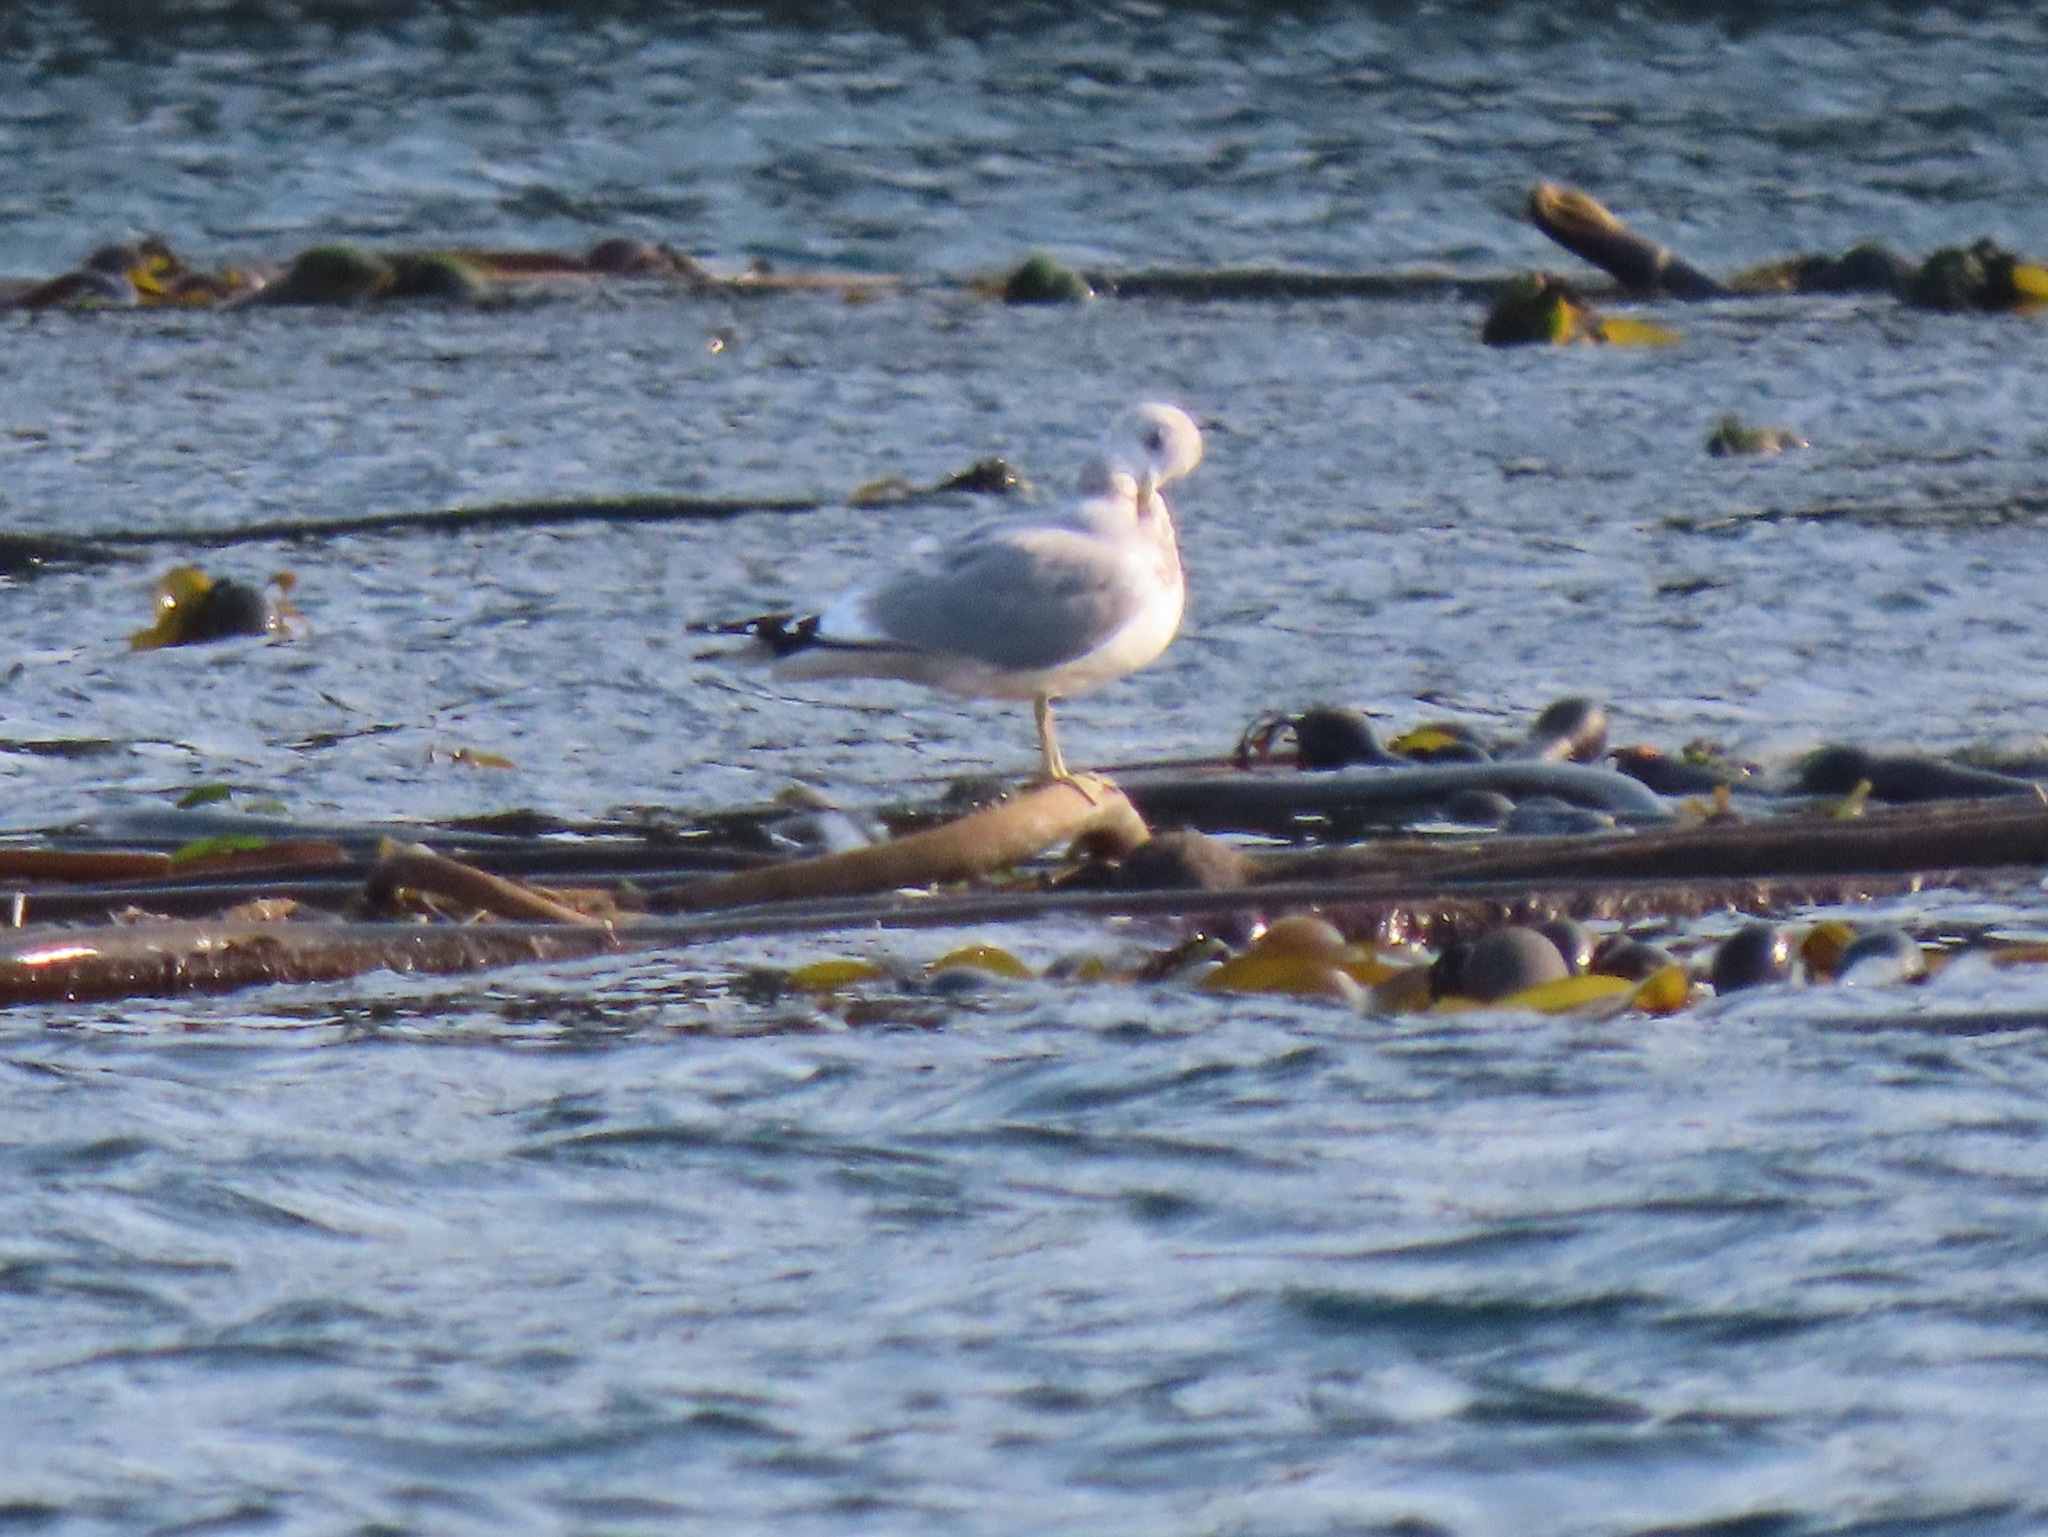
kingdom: Animalia
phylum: Chordata
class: Aves
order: Charadriiformes
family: Laridae
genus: Larus
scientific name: Larus brachyrhynchus
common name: Short-billed gull
